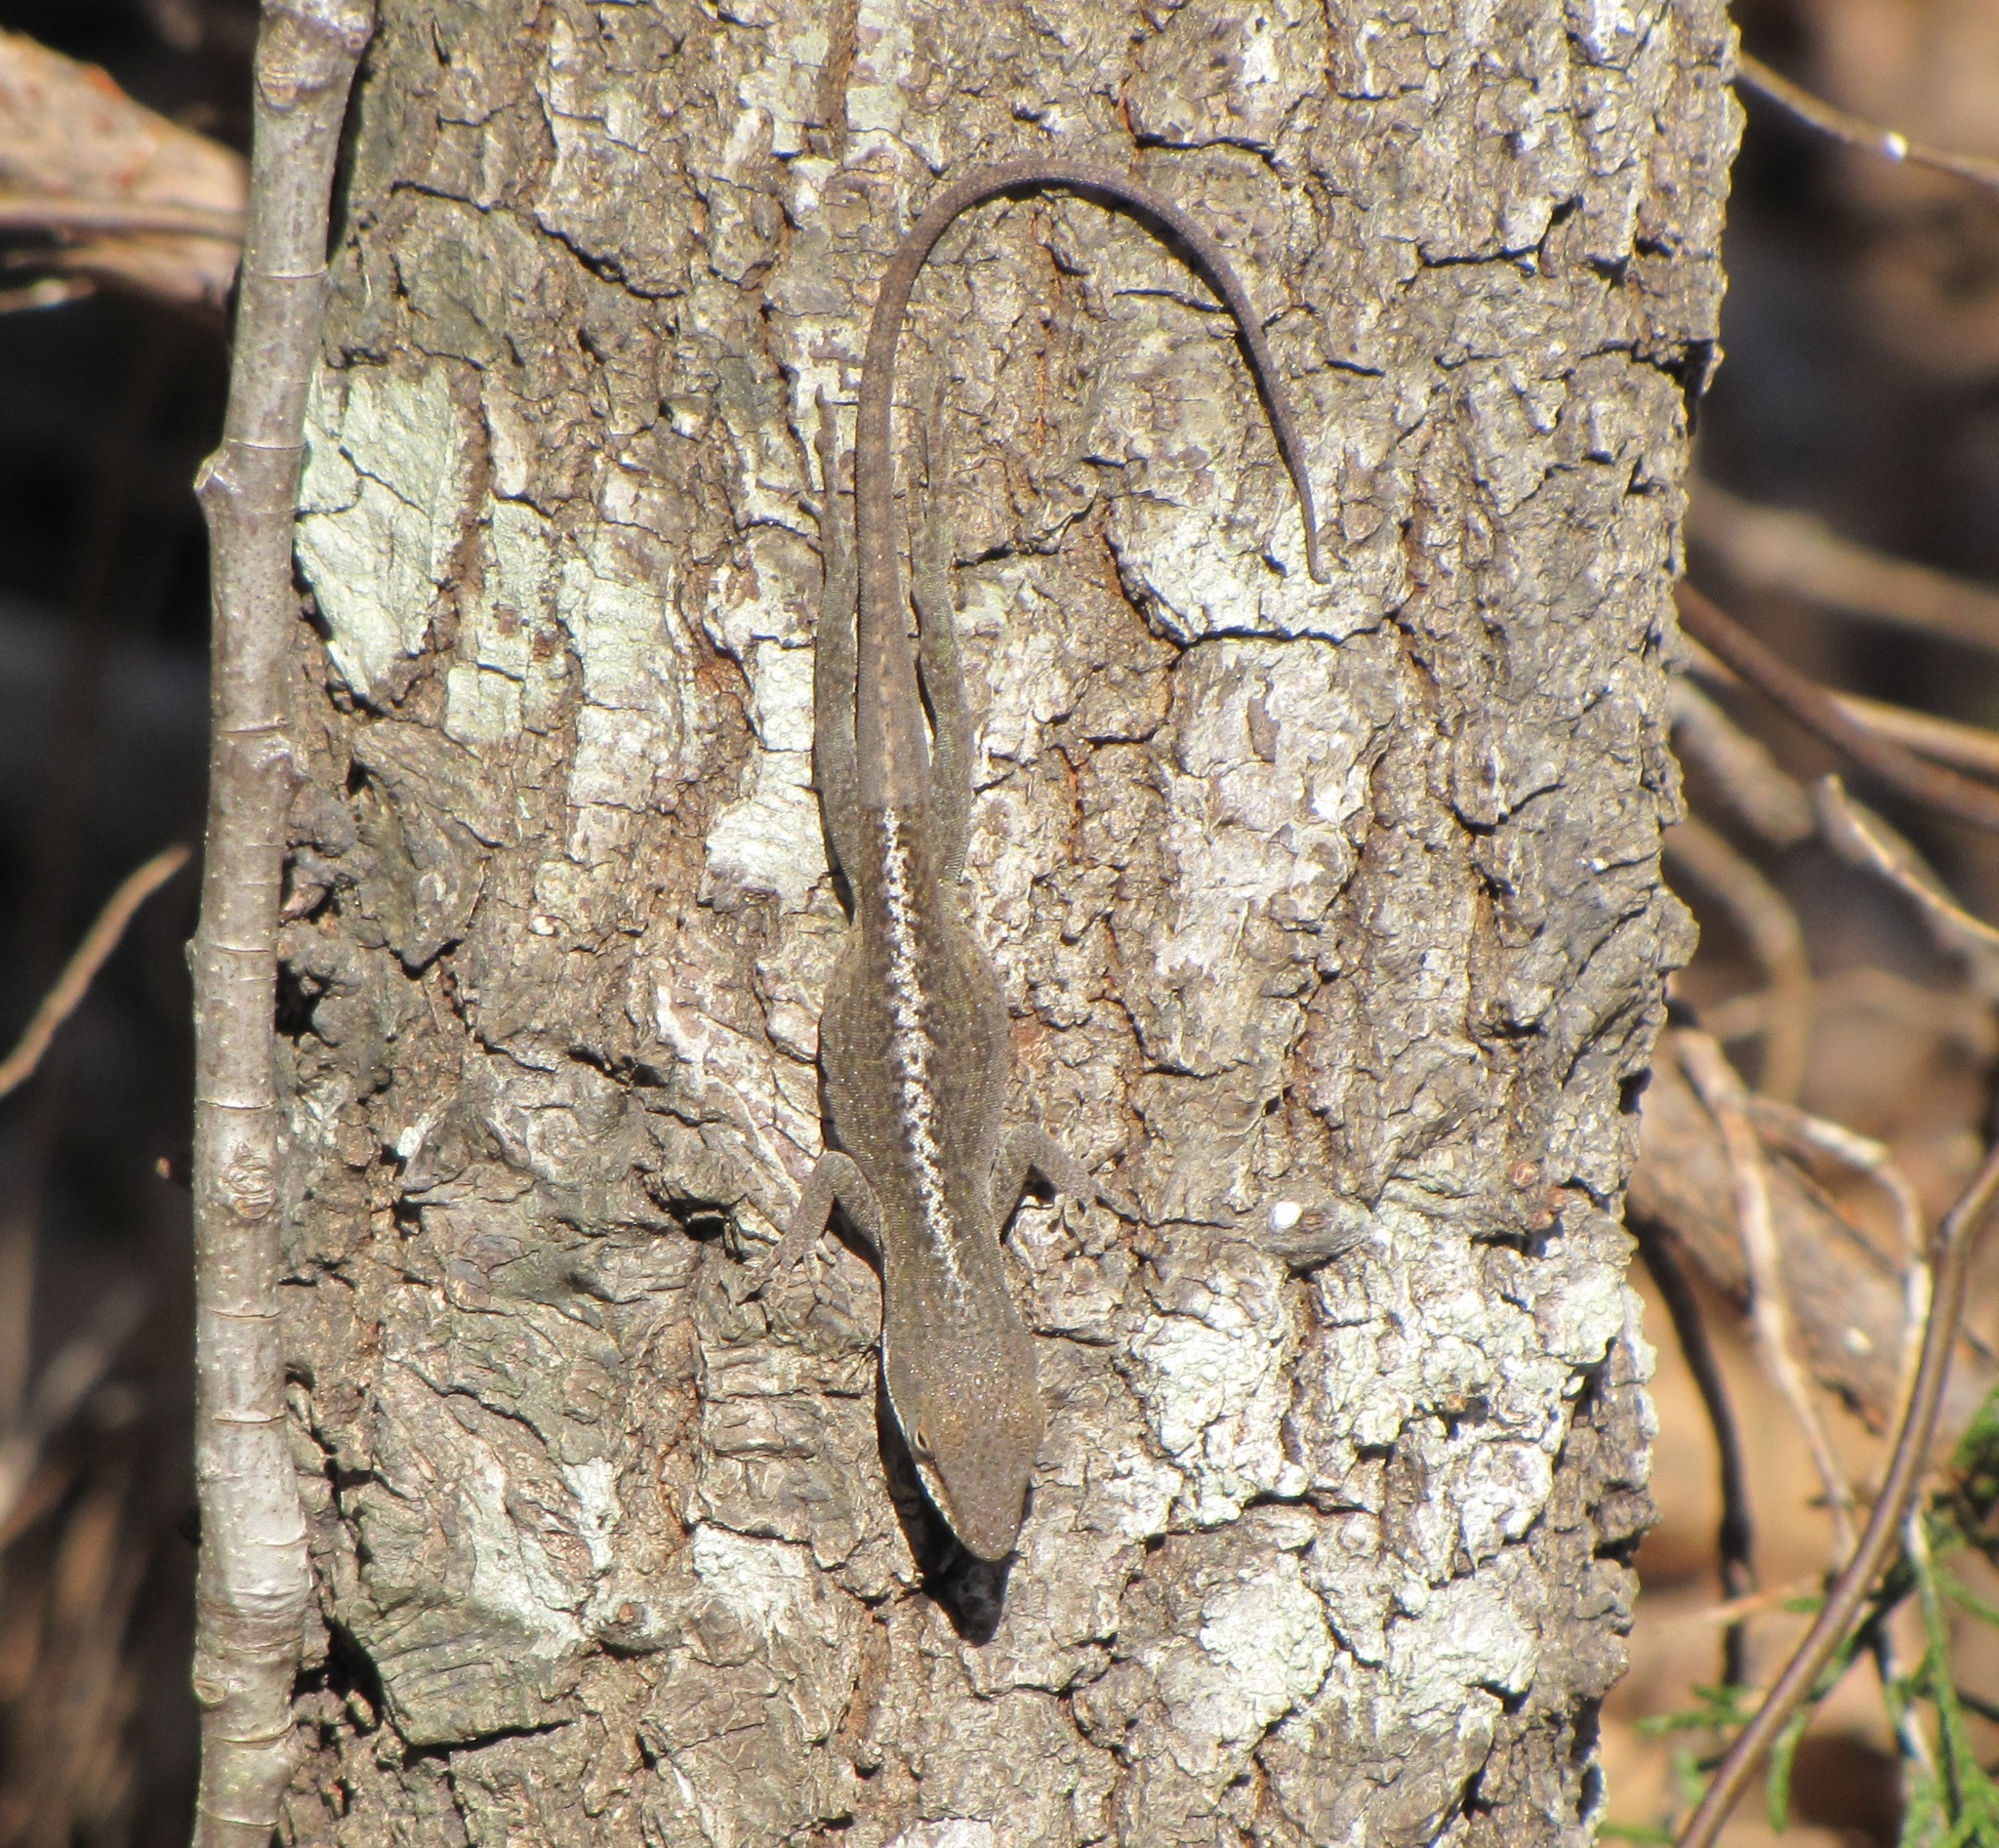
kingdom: Animalia
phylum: Chordata
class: Squamata
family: Dactyloidae
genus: Anolis
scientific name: Anolis carolinensis
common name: Green anole
